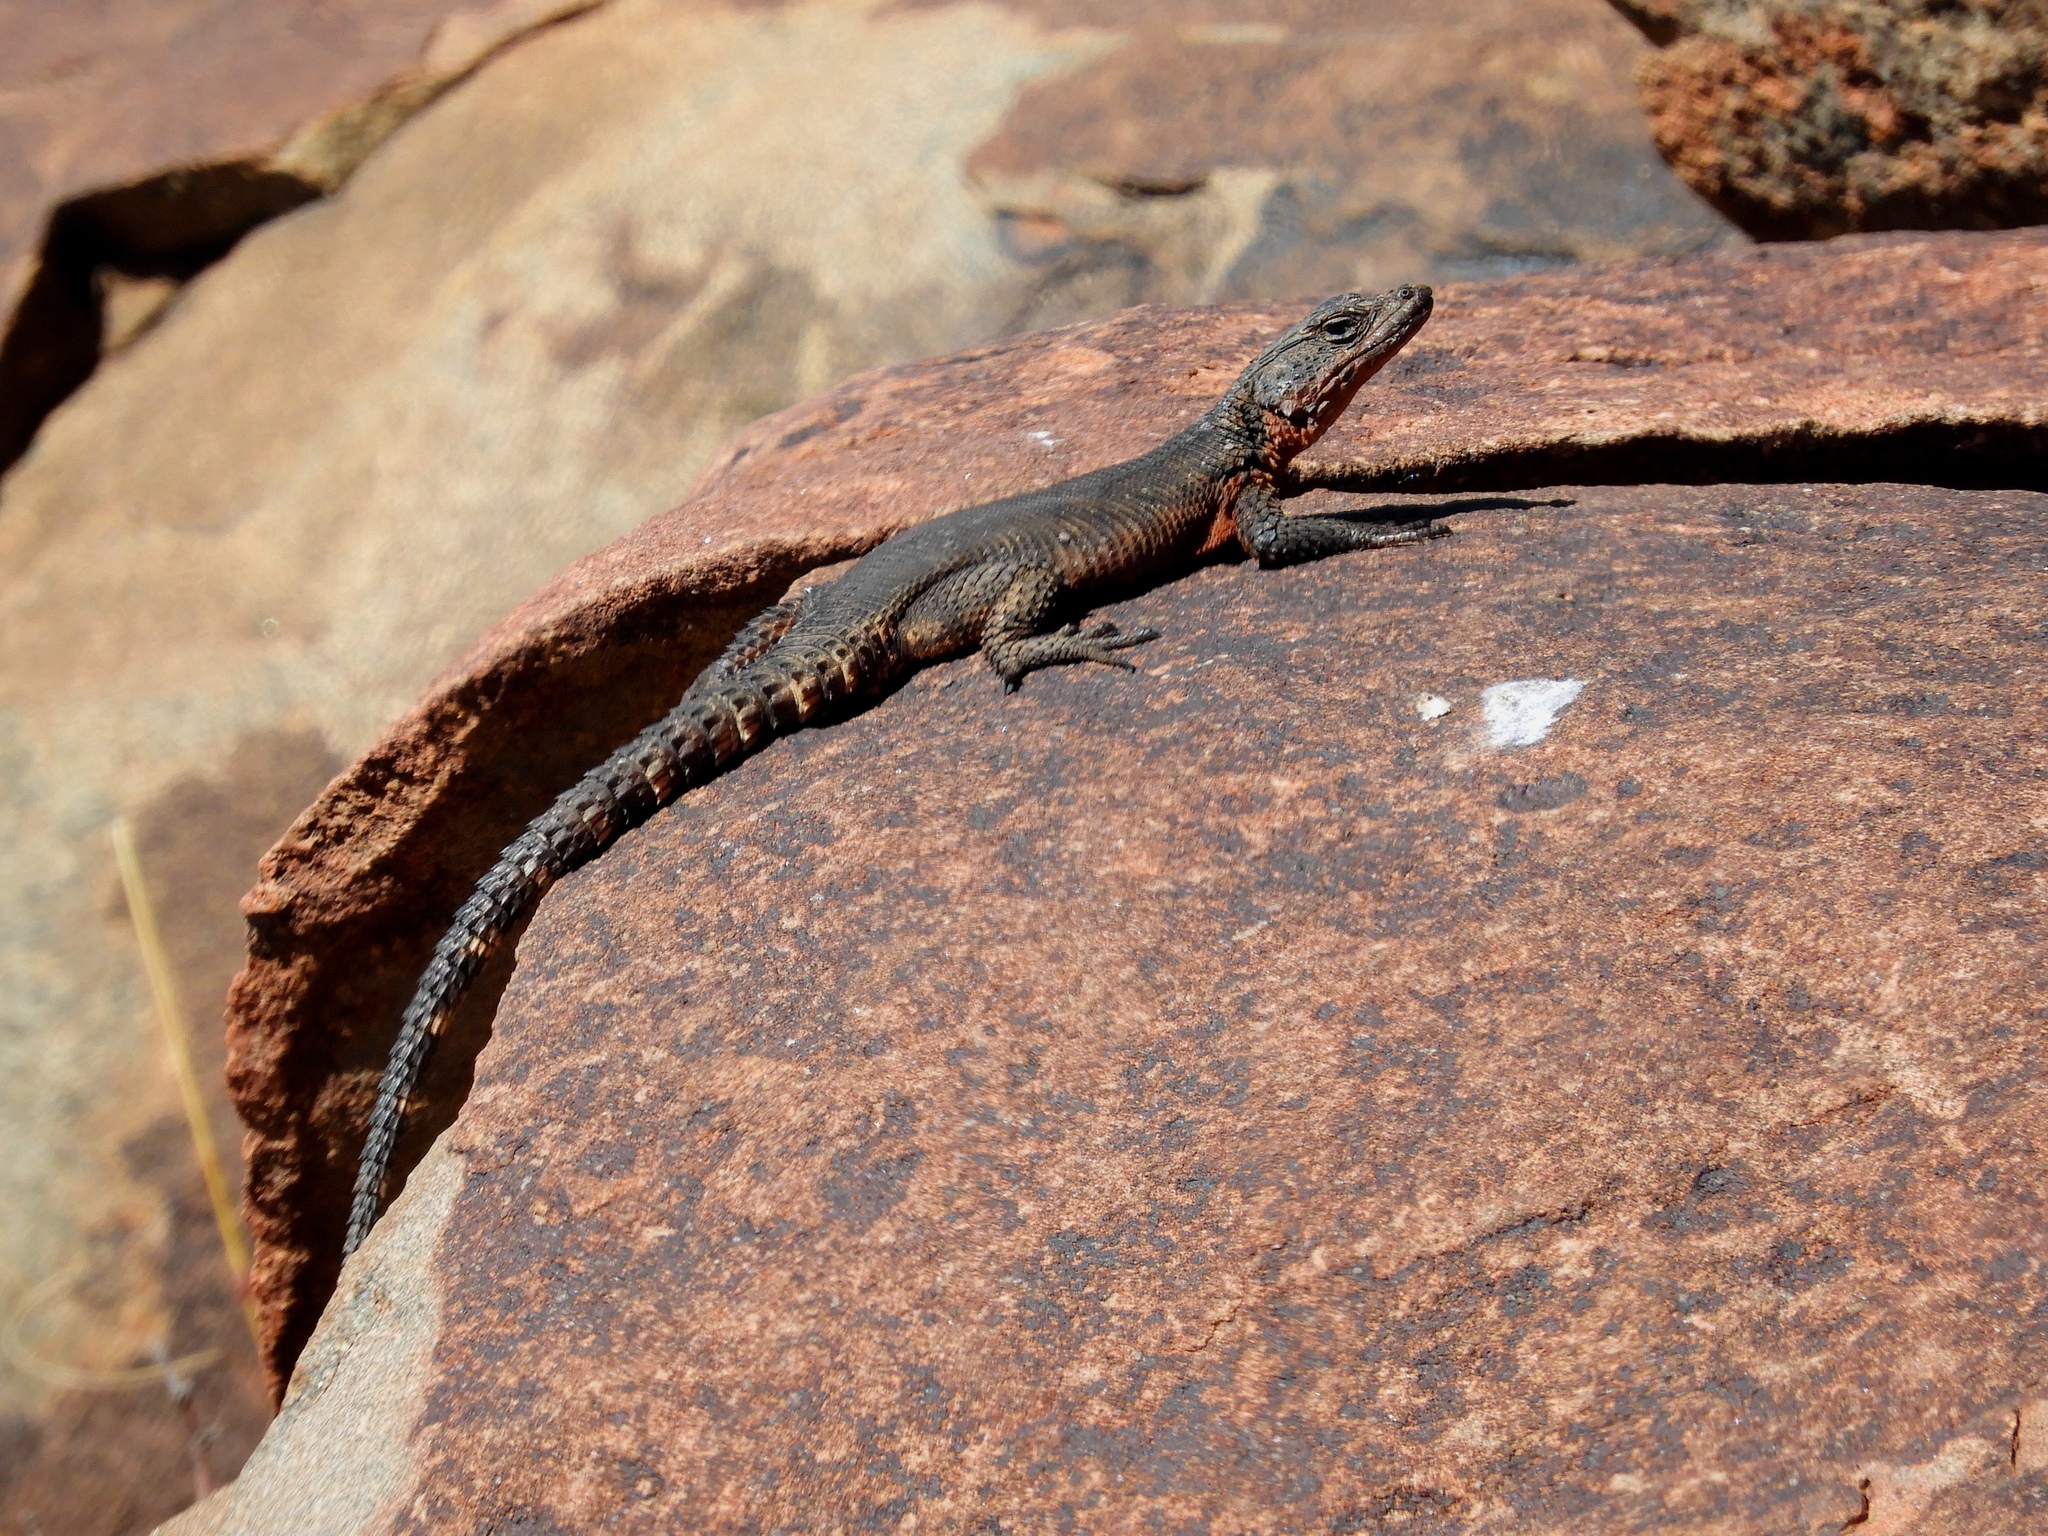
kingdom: Animalia
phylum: Chordata
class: Squamata
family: Cordylidae
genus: Karusasaurus
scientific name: Karusasaurus polyzonus
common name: Karoo girdled lizard
